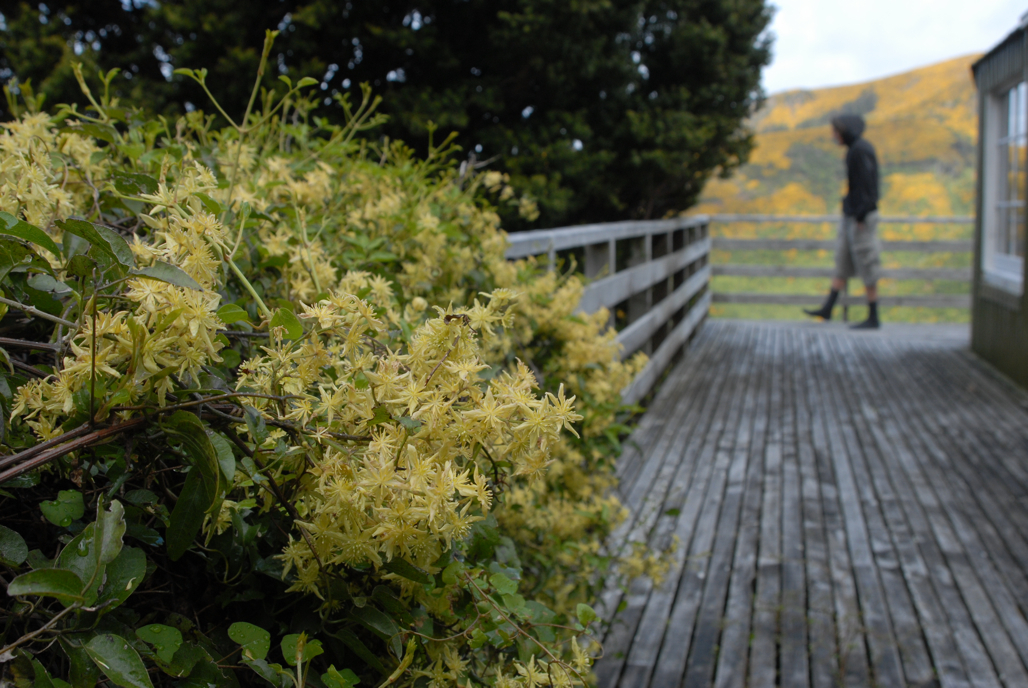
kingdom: Plantae
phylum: Tracheophyta
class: Magnoliopsida
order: Ranunculales
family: Ranunculaceae
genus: Clematis
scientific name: Clematis foetida
